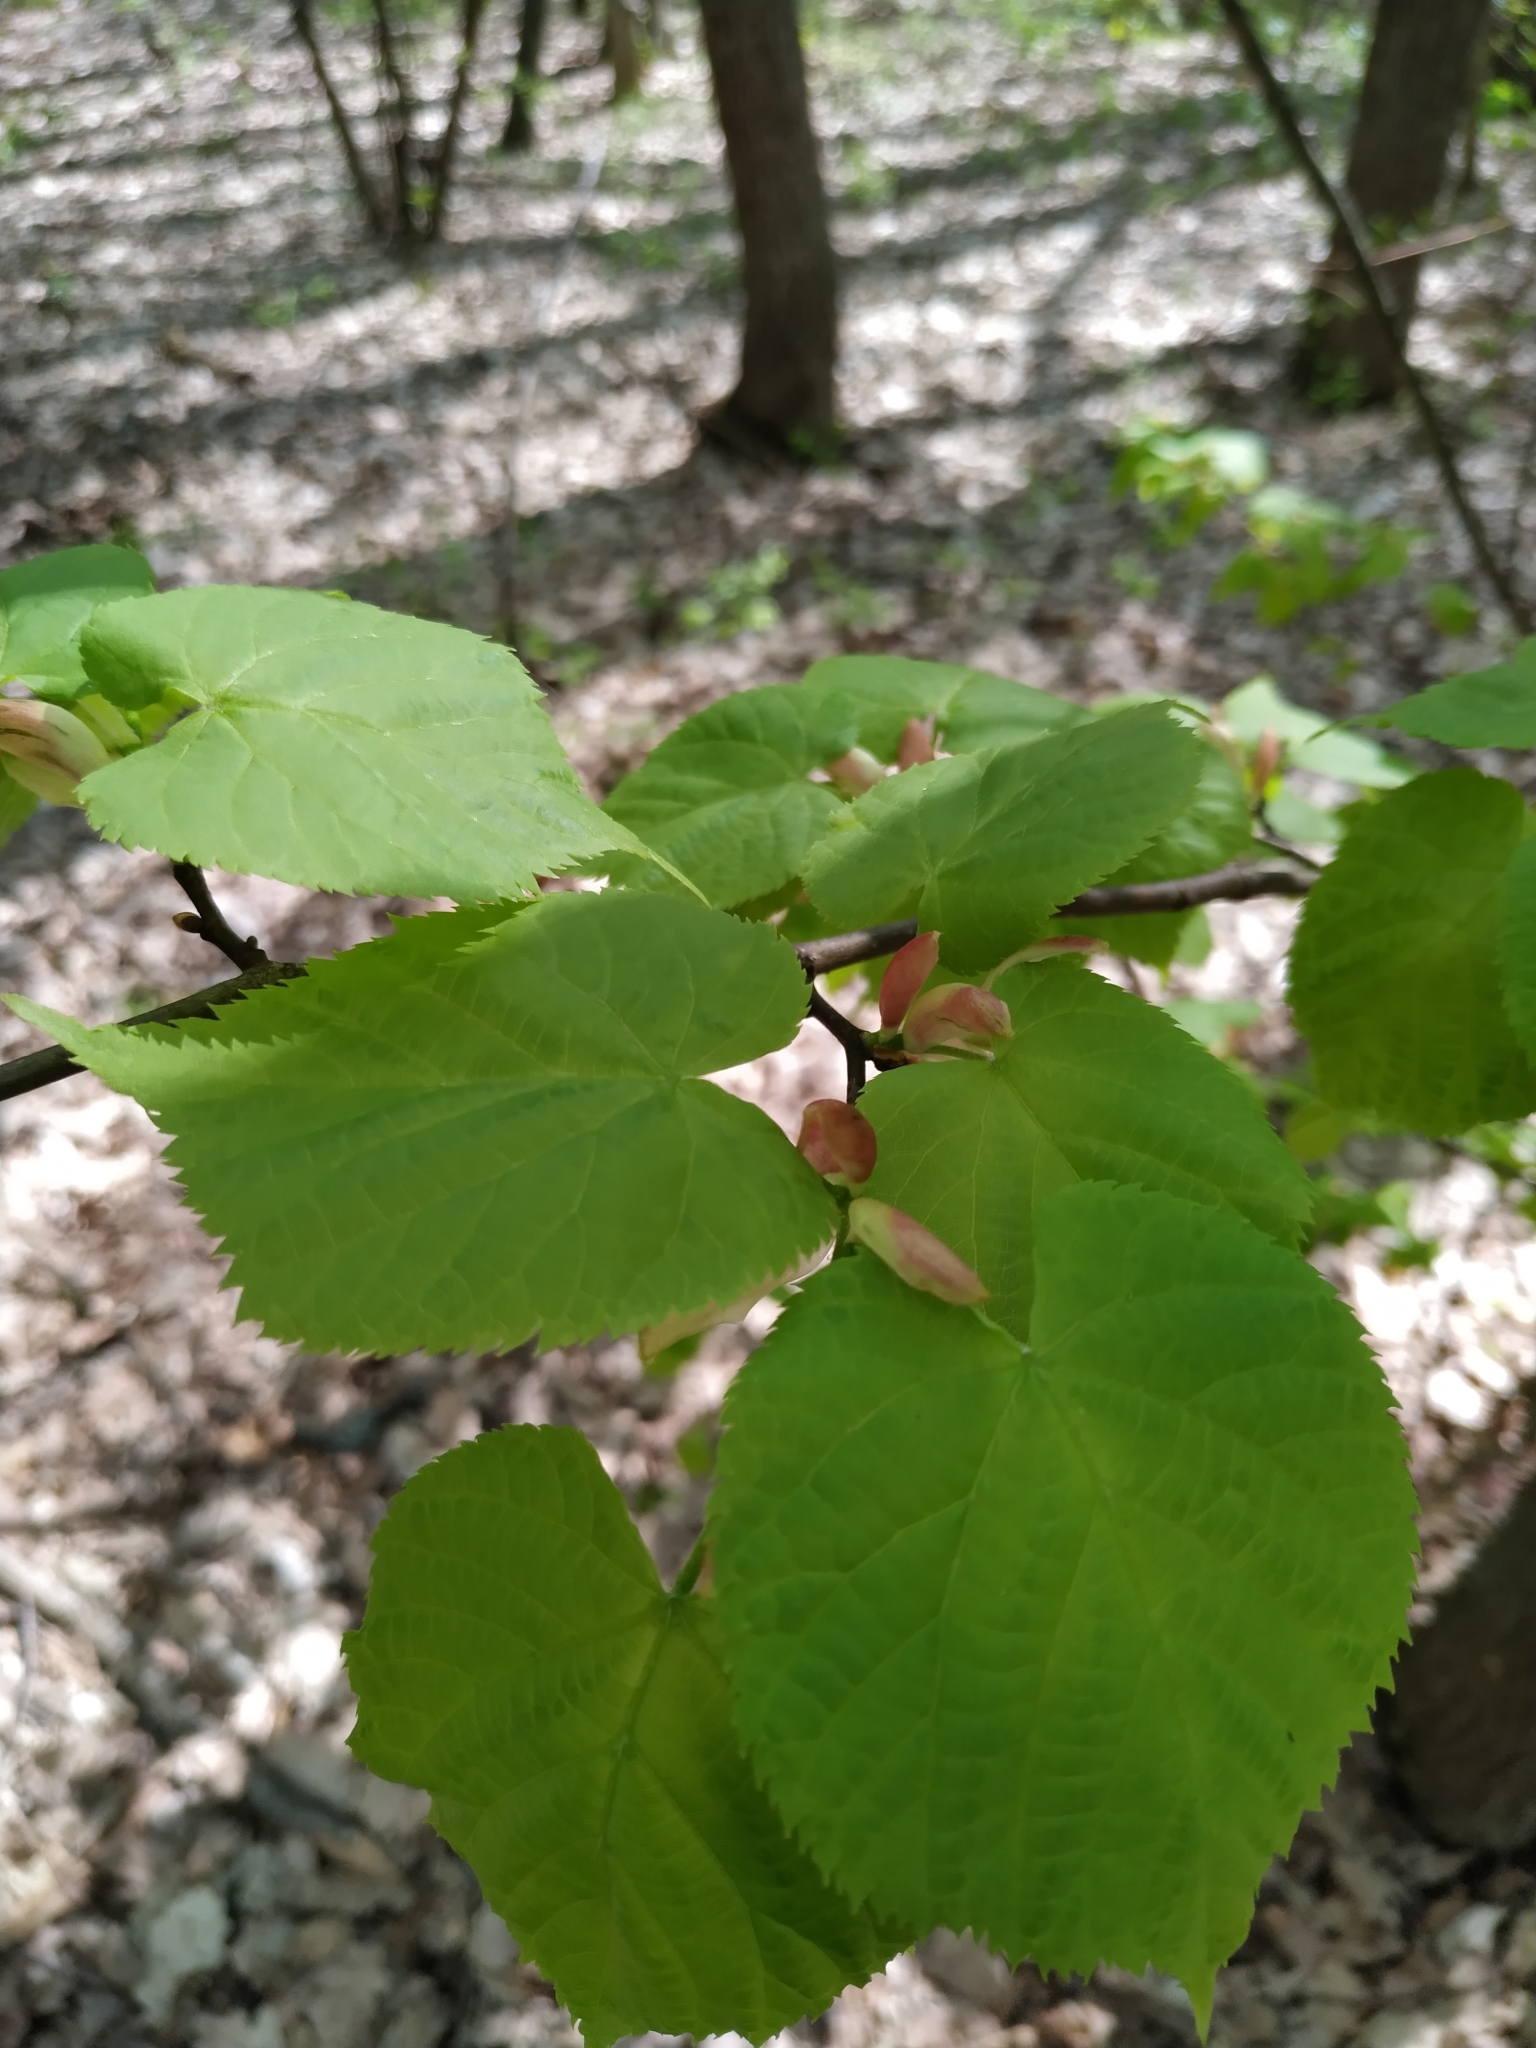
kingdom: Plantae
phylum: Tracheophyta
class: Magnoliopsida
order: Malvales
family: Malvaceae
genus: Tilia
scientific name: Tilia cordata
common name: Small-leaved lime
